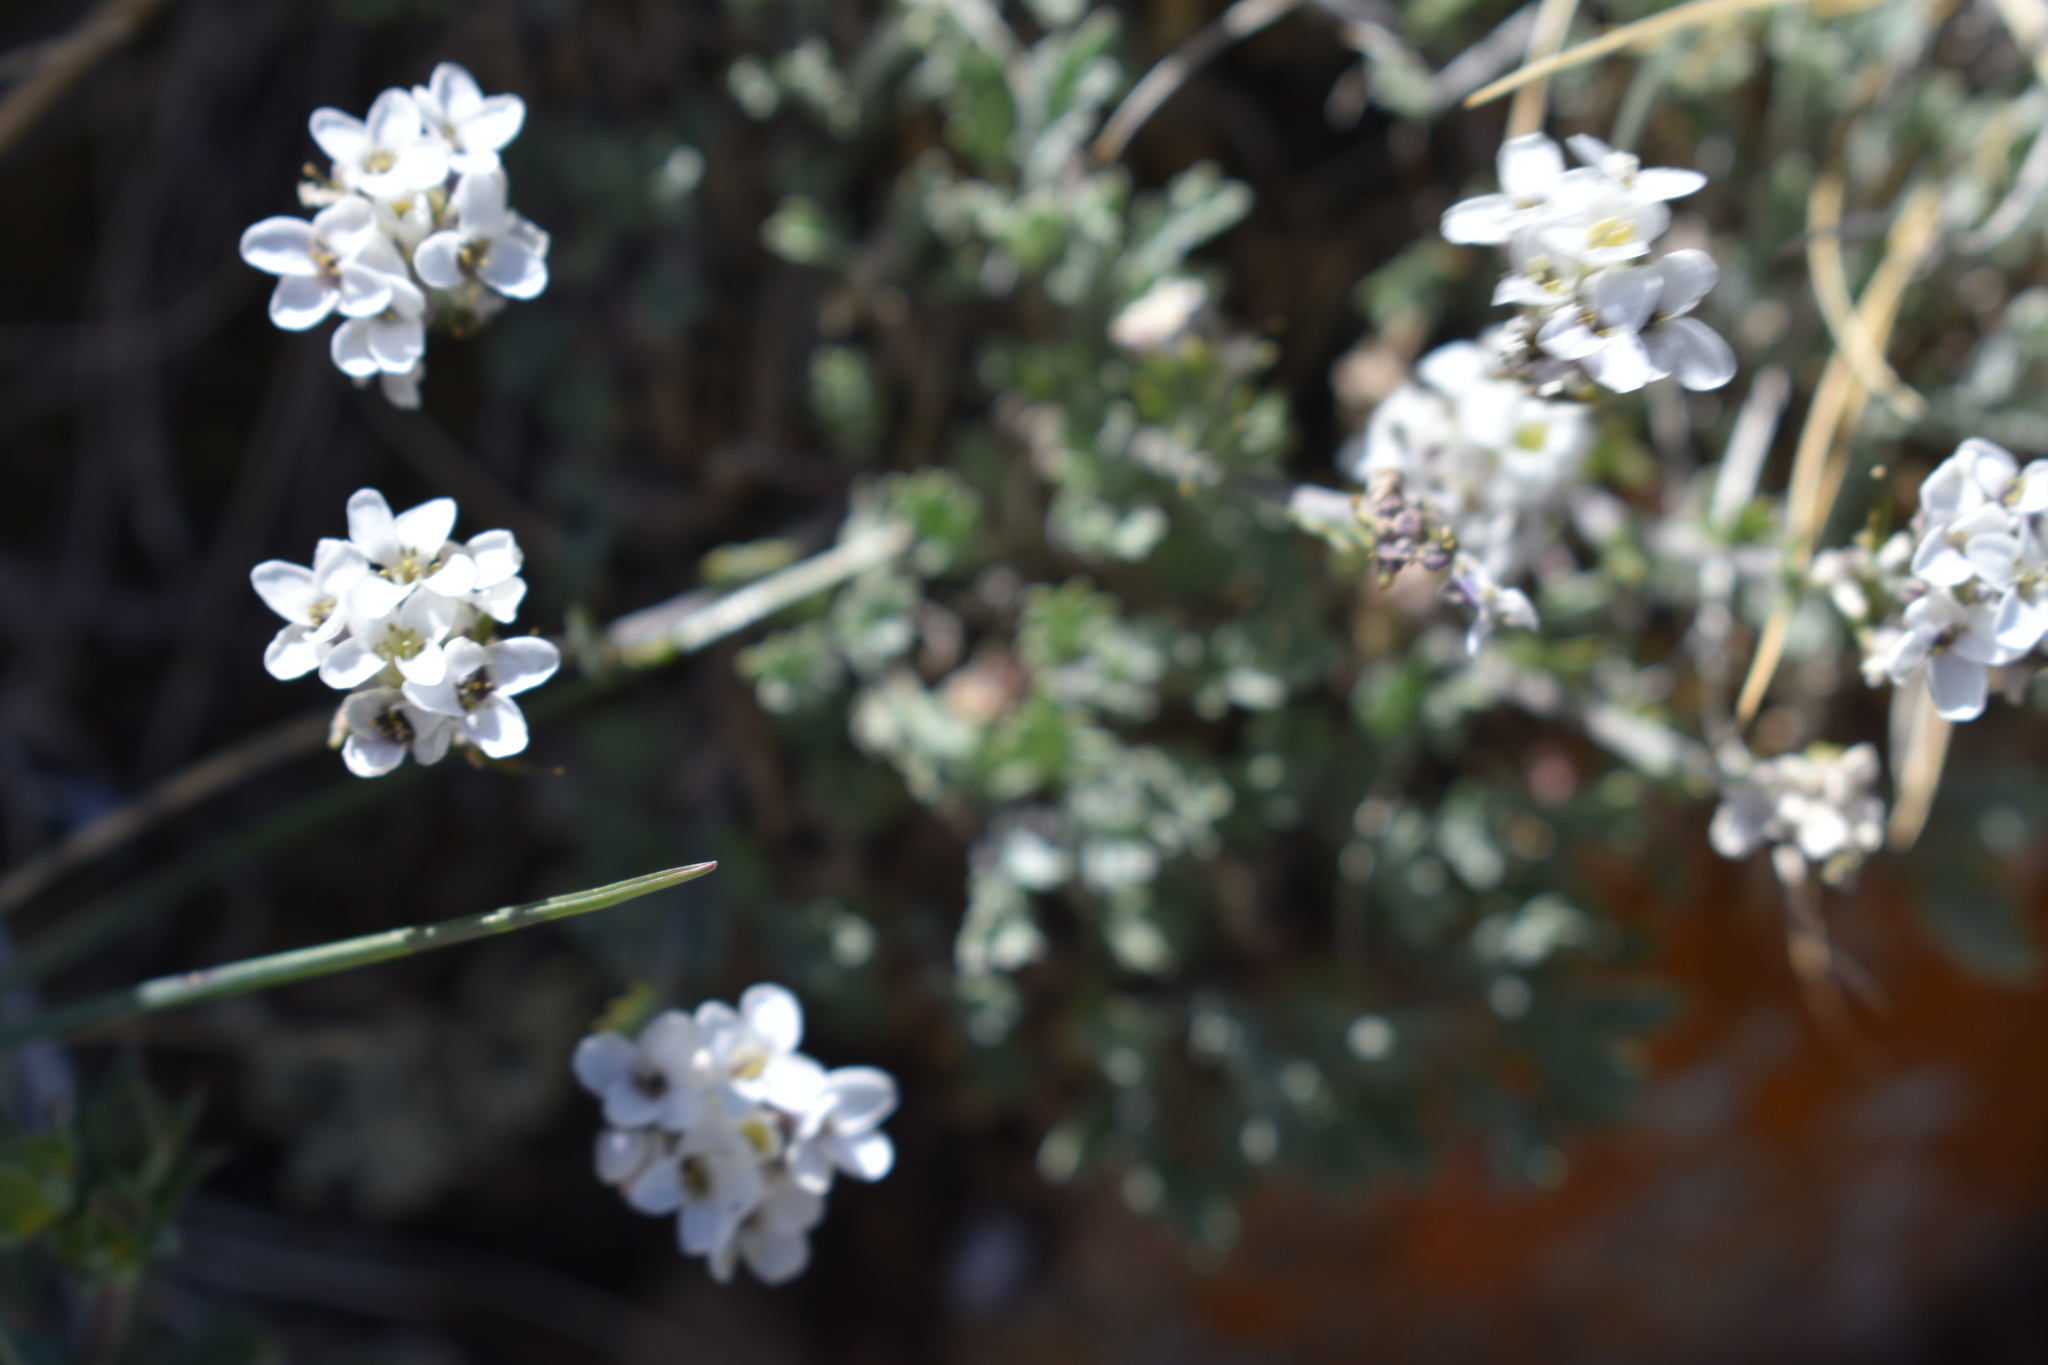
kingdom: Plantae
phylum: Tracheophyta
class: Magnoliopsida
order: Brassicales
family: Brassicaceae
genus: Smelowskia
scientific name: Smelowskia americana
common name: American false candytuft
